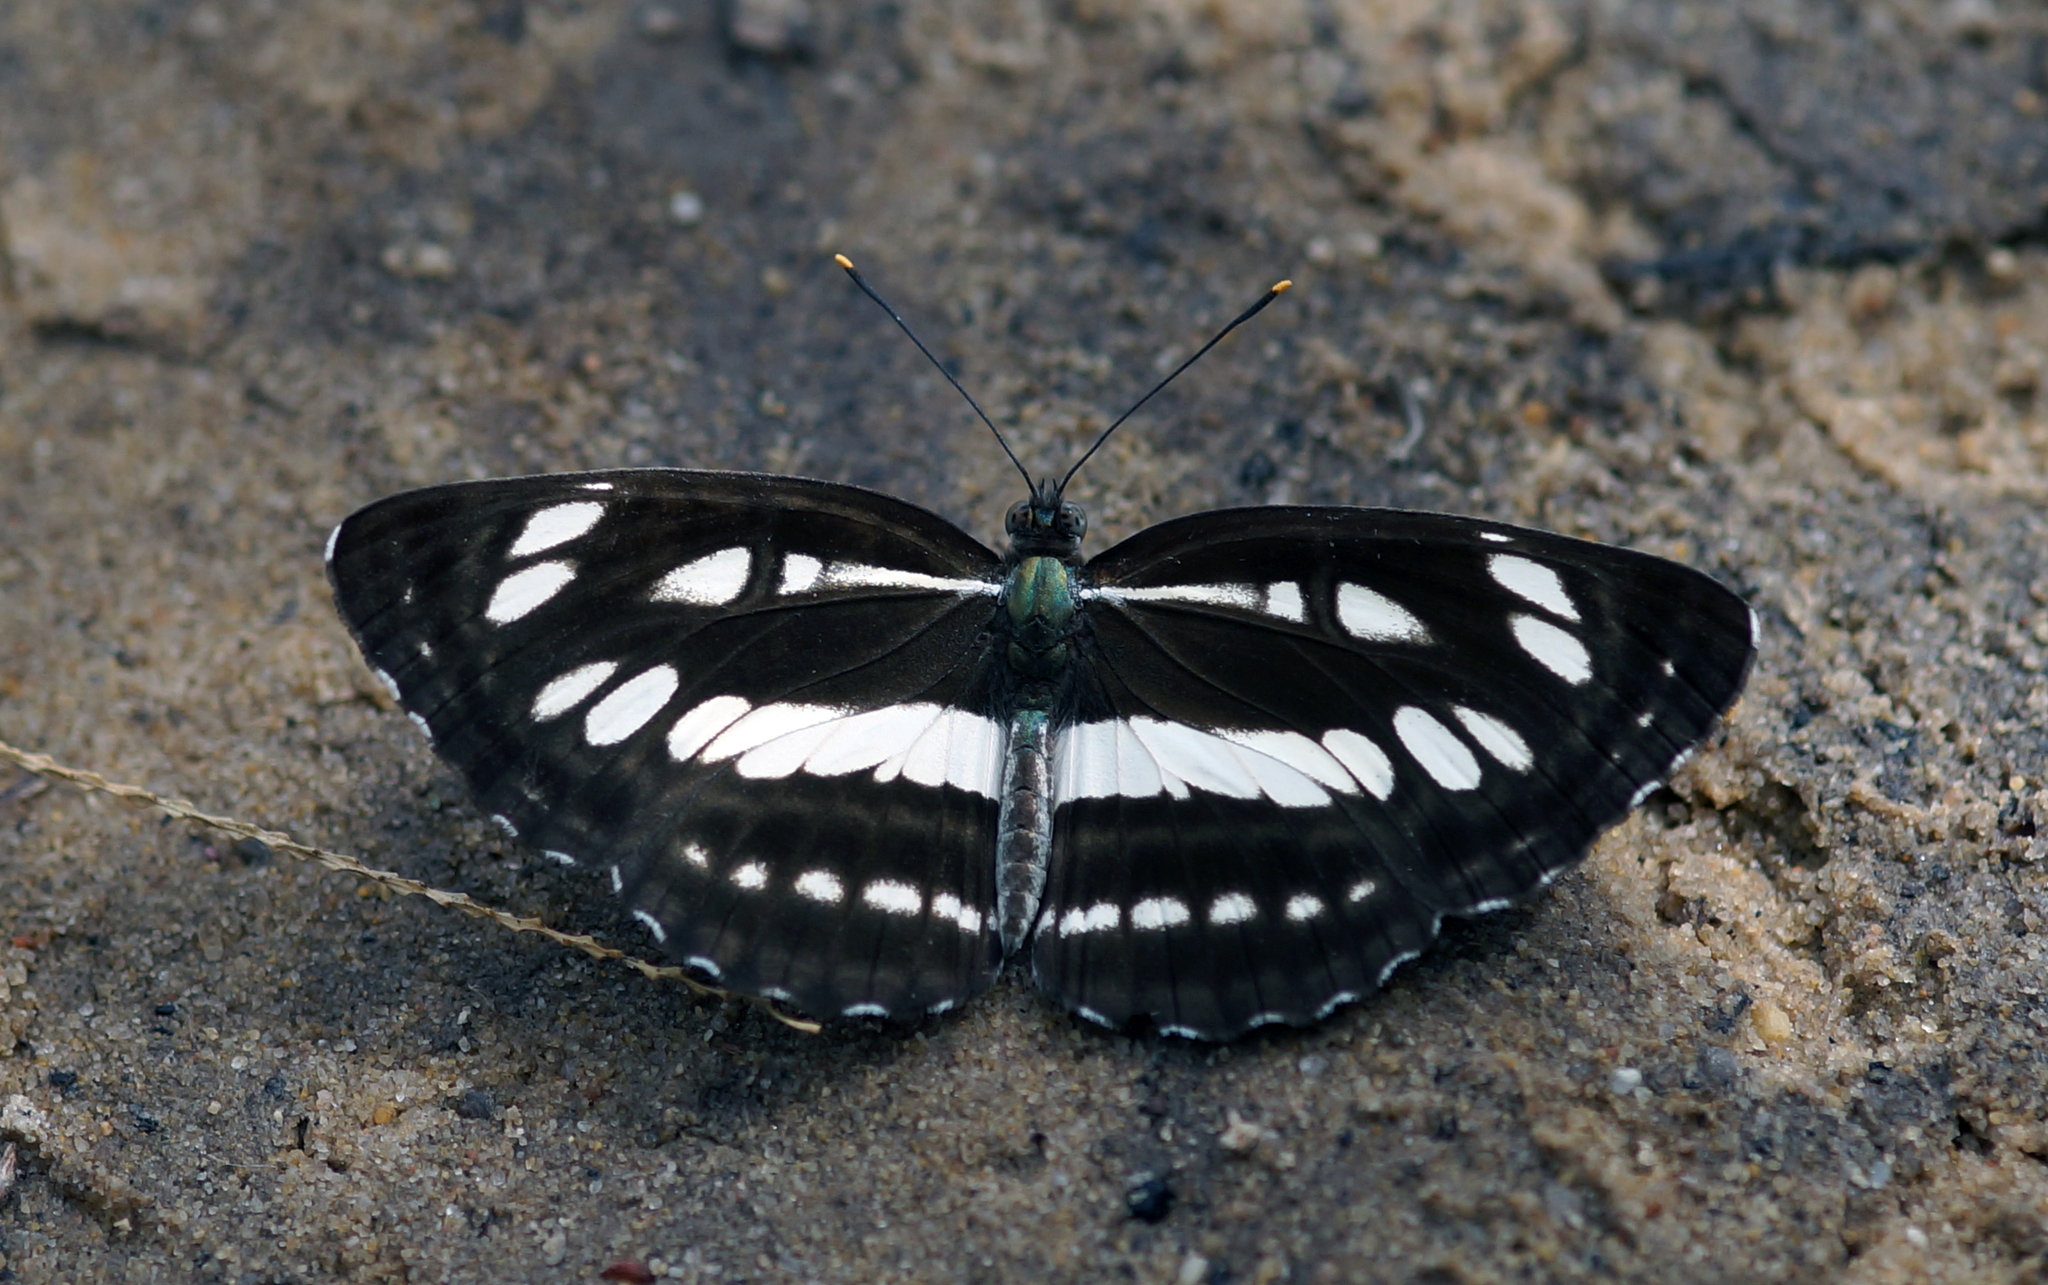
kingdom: Animalia
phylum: Arthropoda
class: Insecta
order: Lepidoptera
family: Nymphalidae
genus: Neptis
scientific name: Neptis hylas
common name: Common sailer
